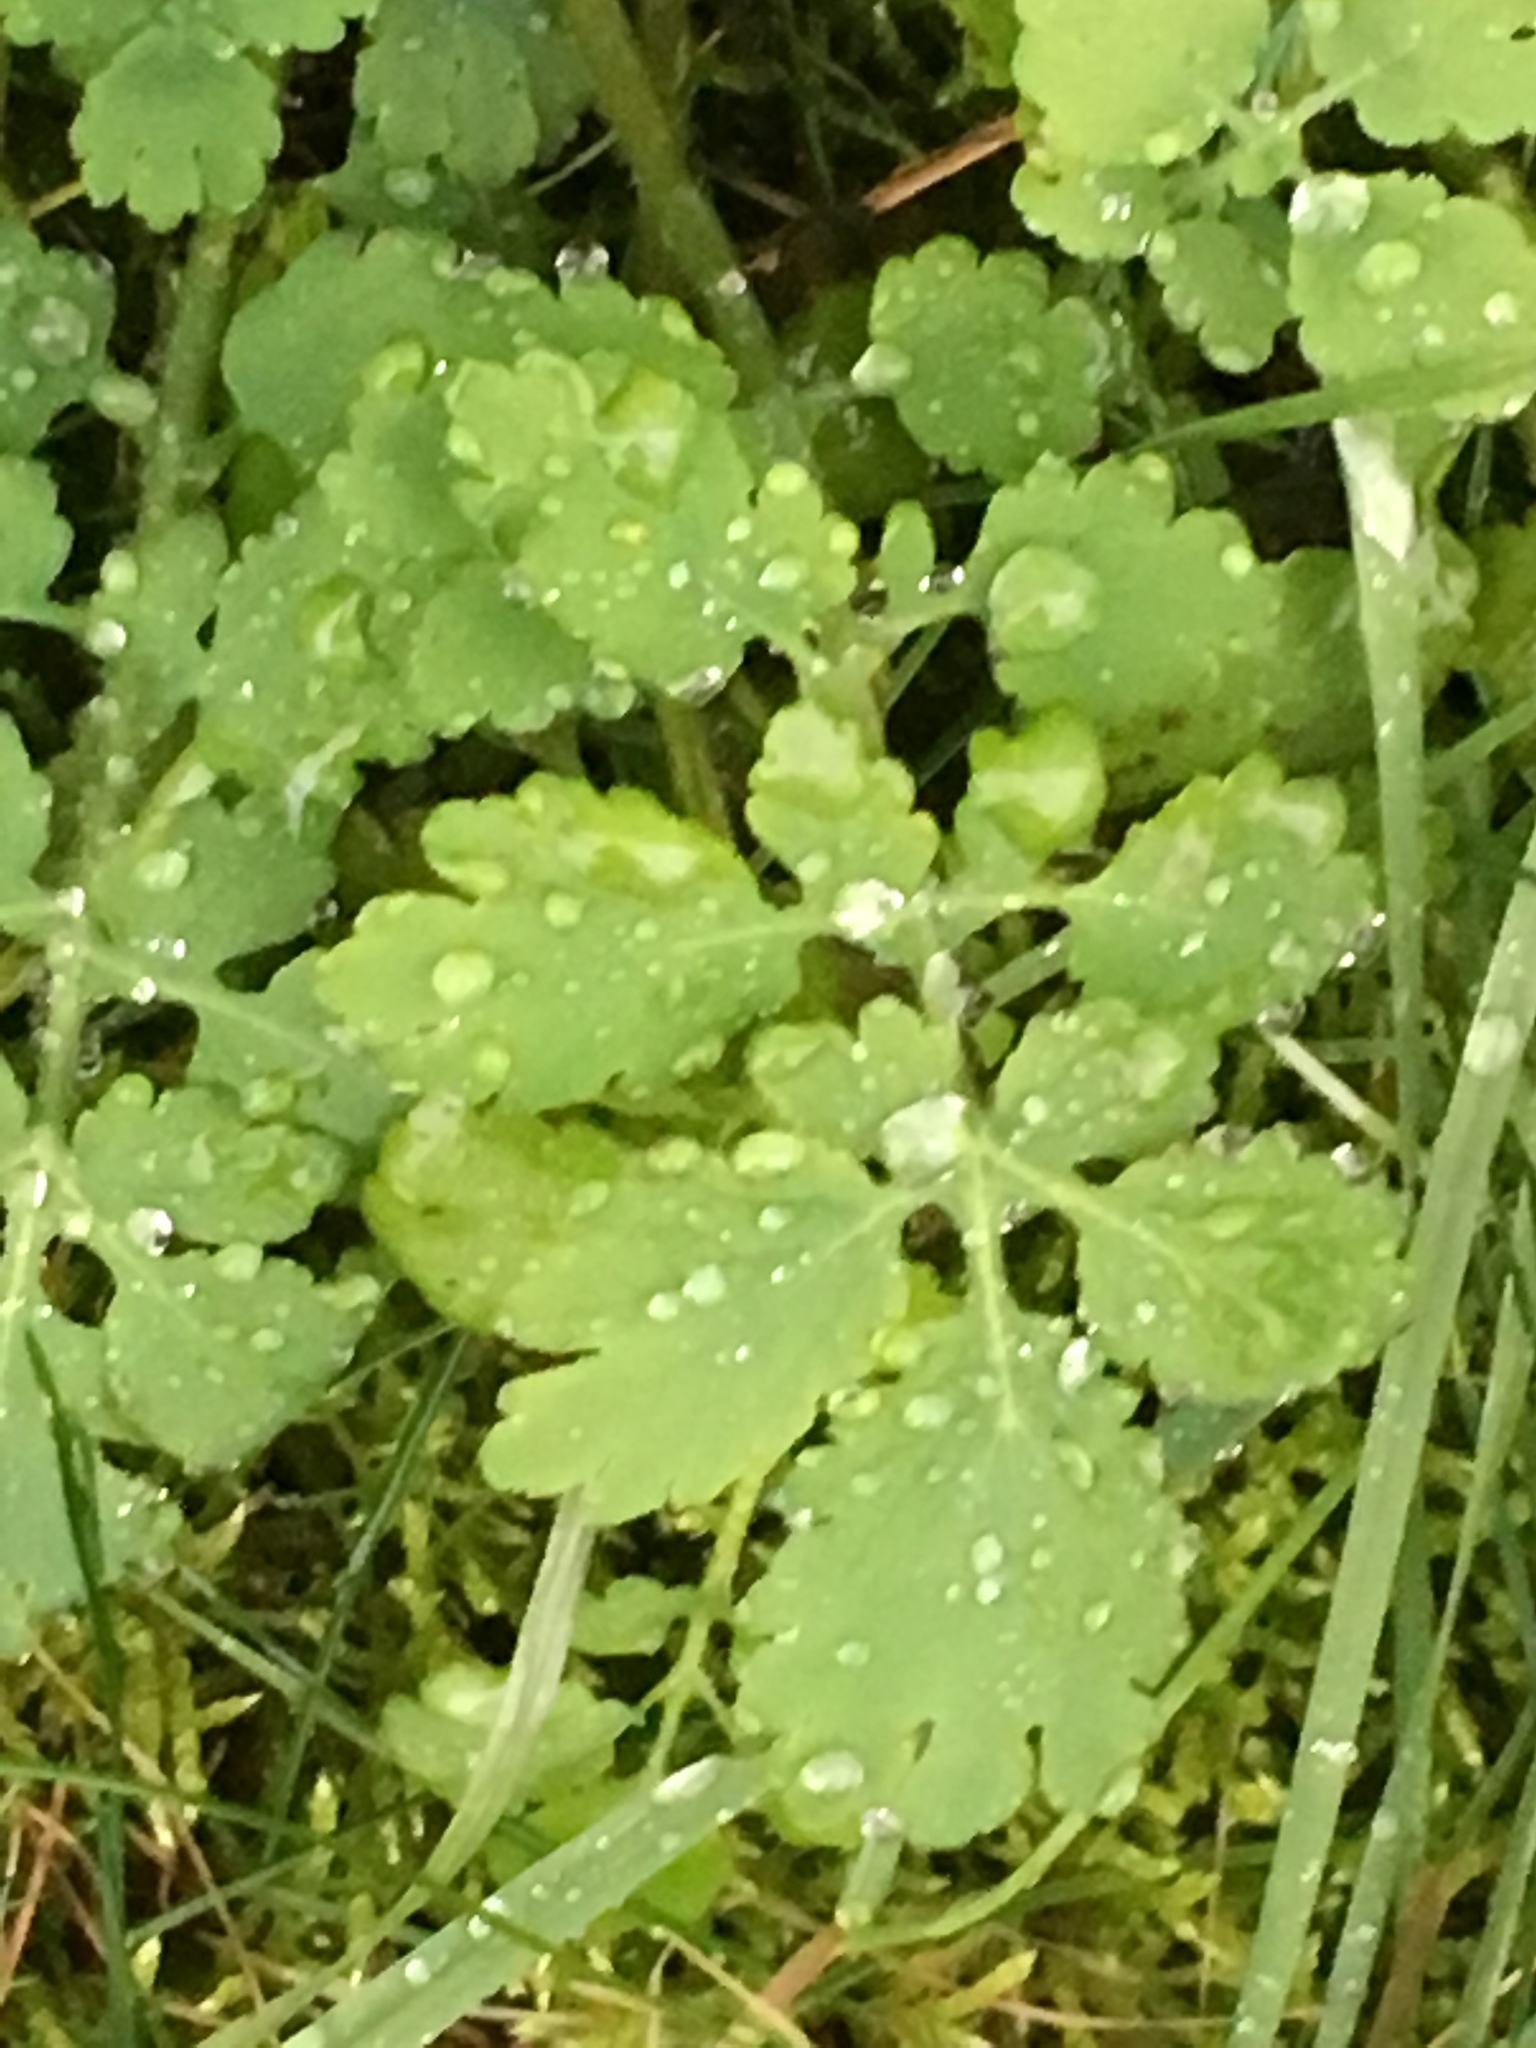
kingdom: Plantae
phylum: Tracheophyta
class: Magnoliopsida
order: Ranunculales
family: Papaveraceae
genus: Chelidonium
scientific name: Chelidonium majus
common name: Greater celandine
